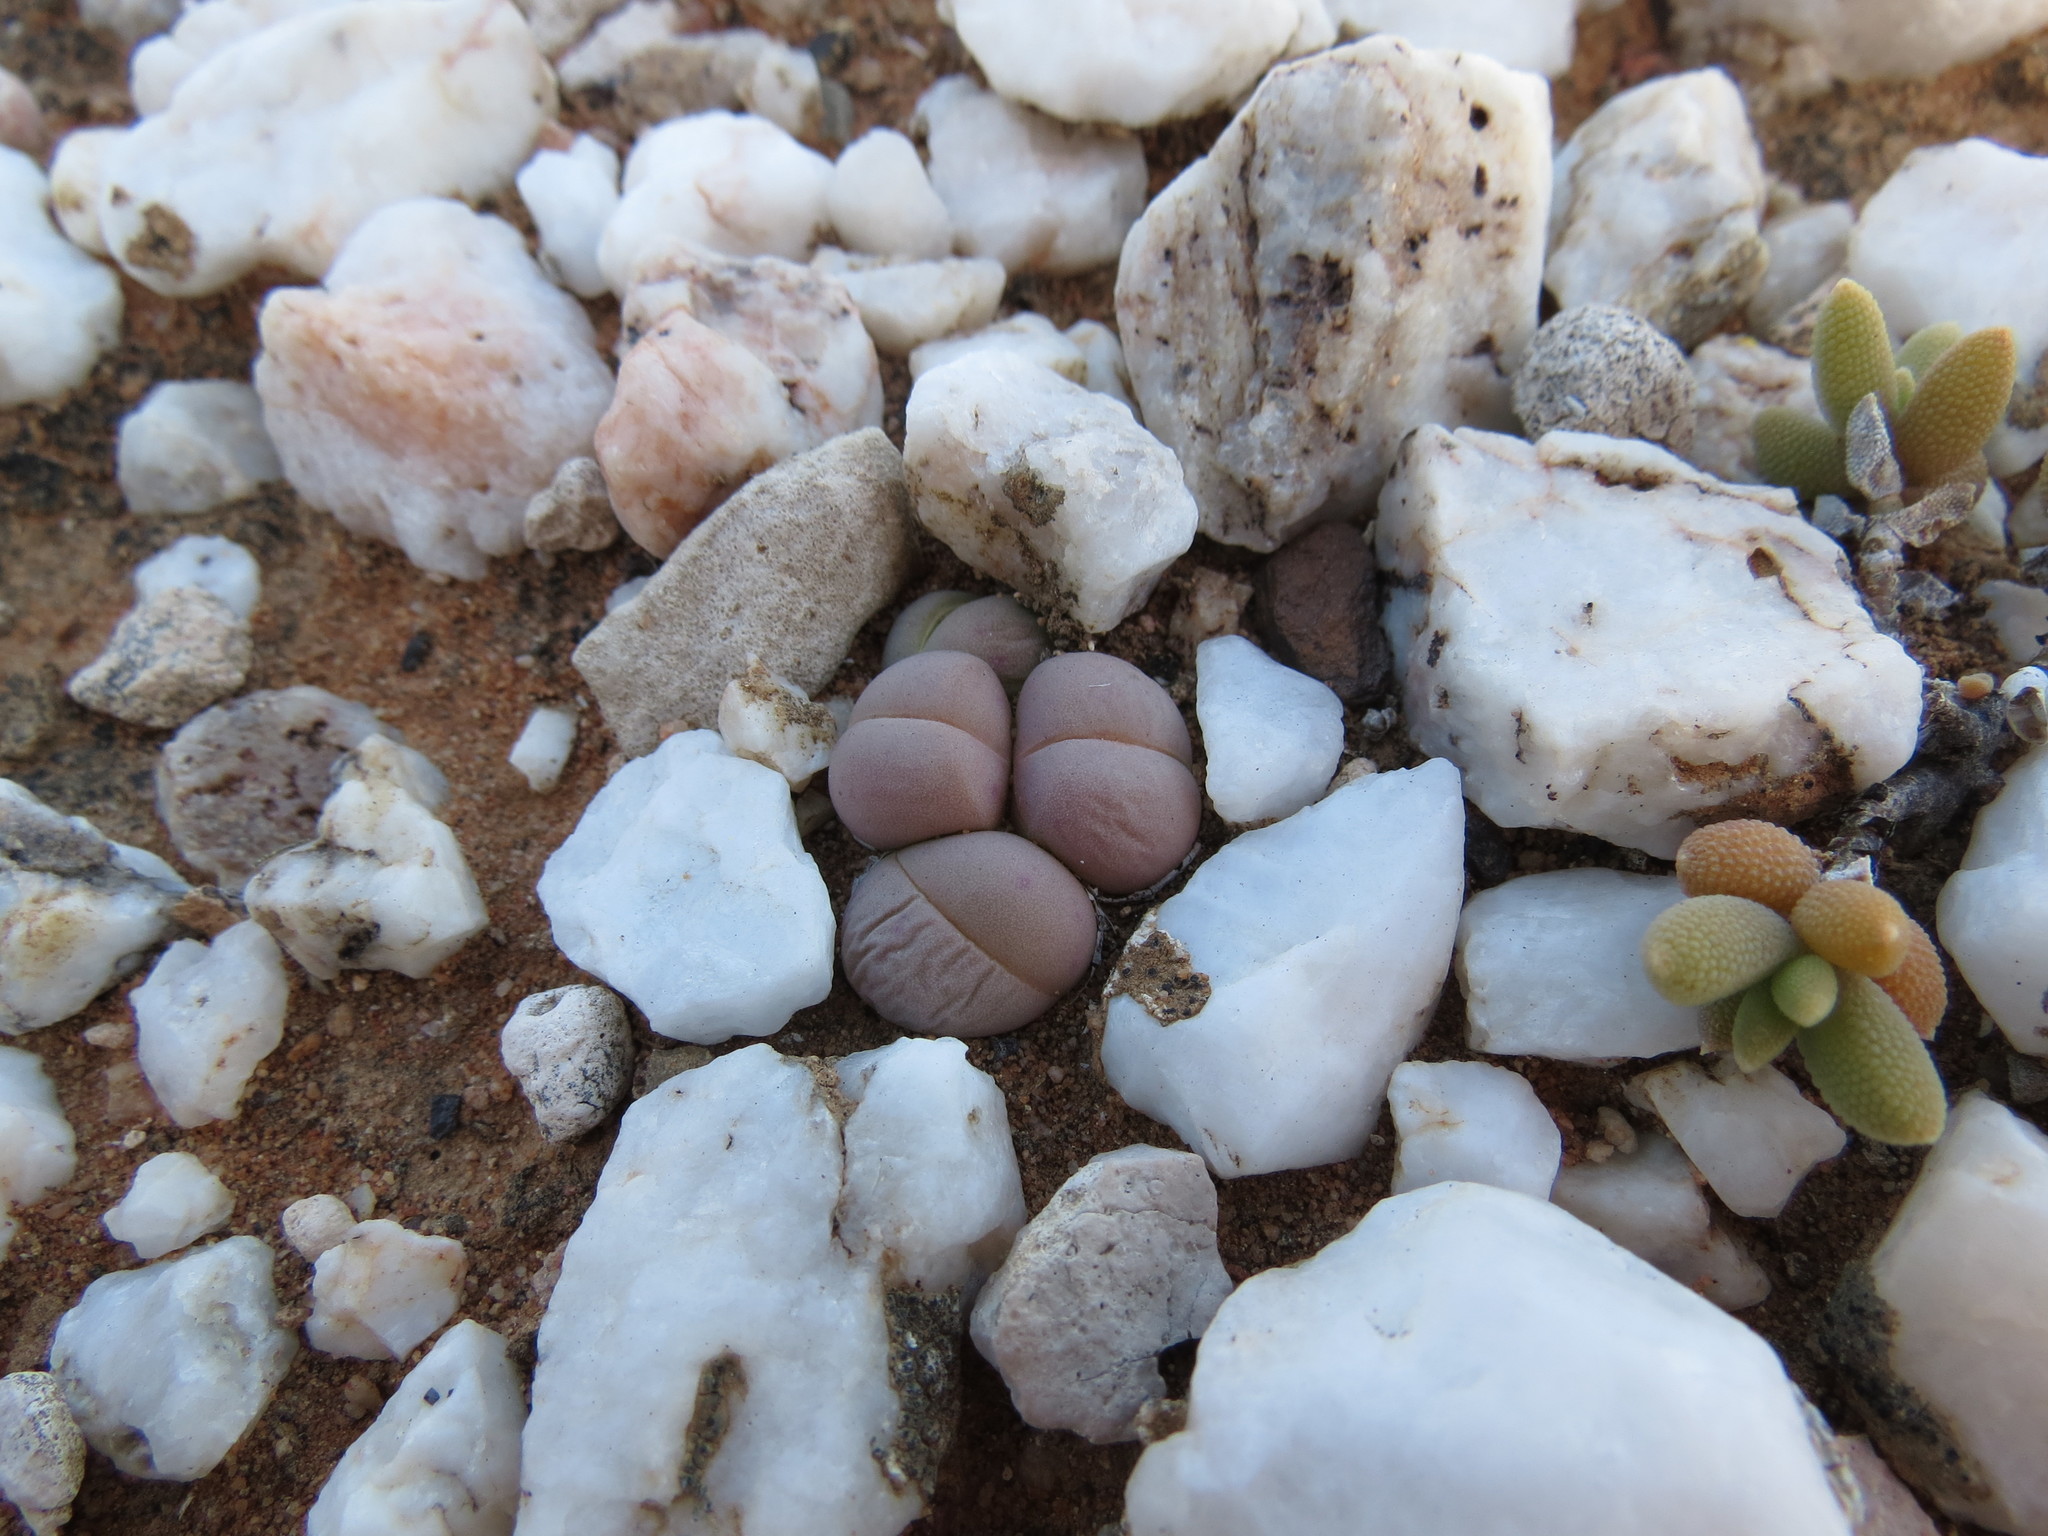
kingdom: Plantae
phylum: Tracheophyta
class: Magnoliopsida
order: Caryophyllales
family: Aizoaceae
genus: Gibbaeum
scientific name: Gibbaeum heathii
